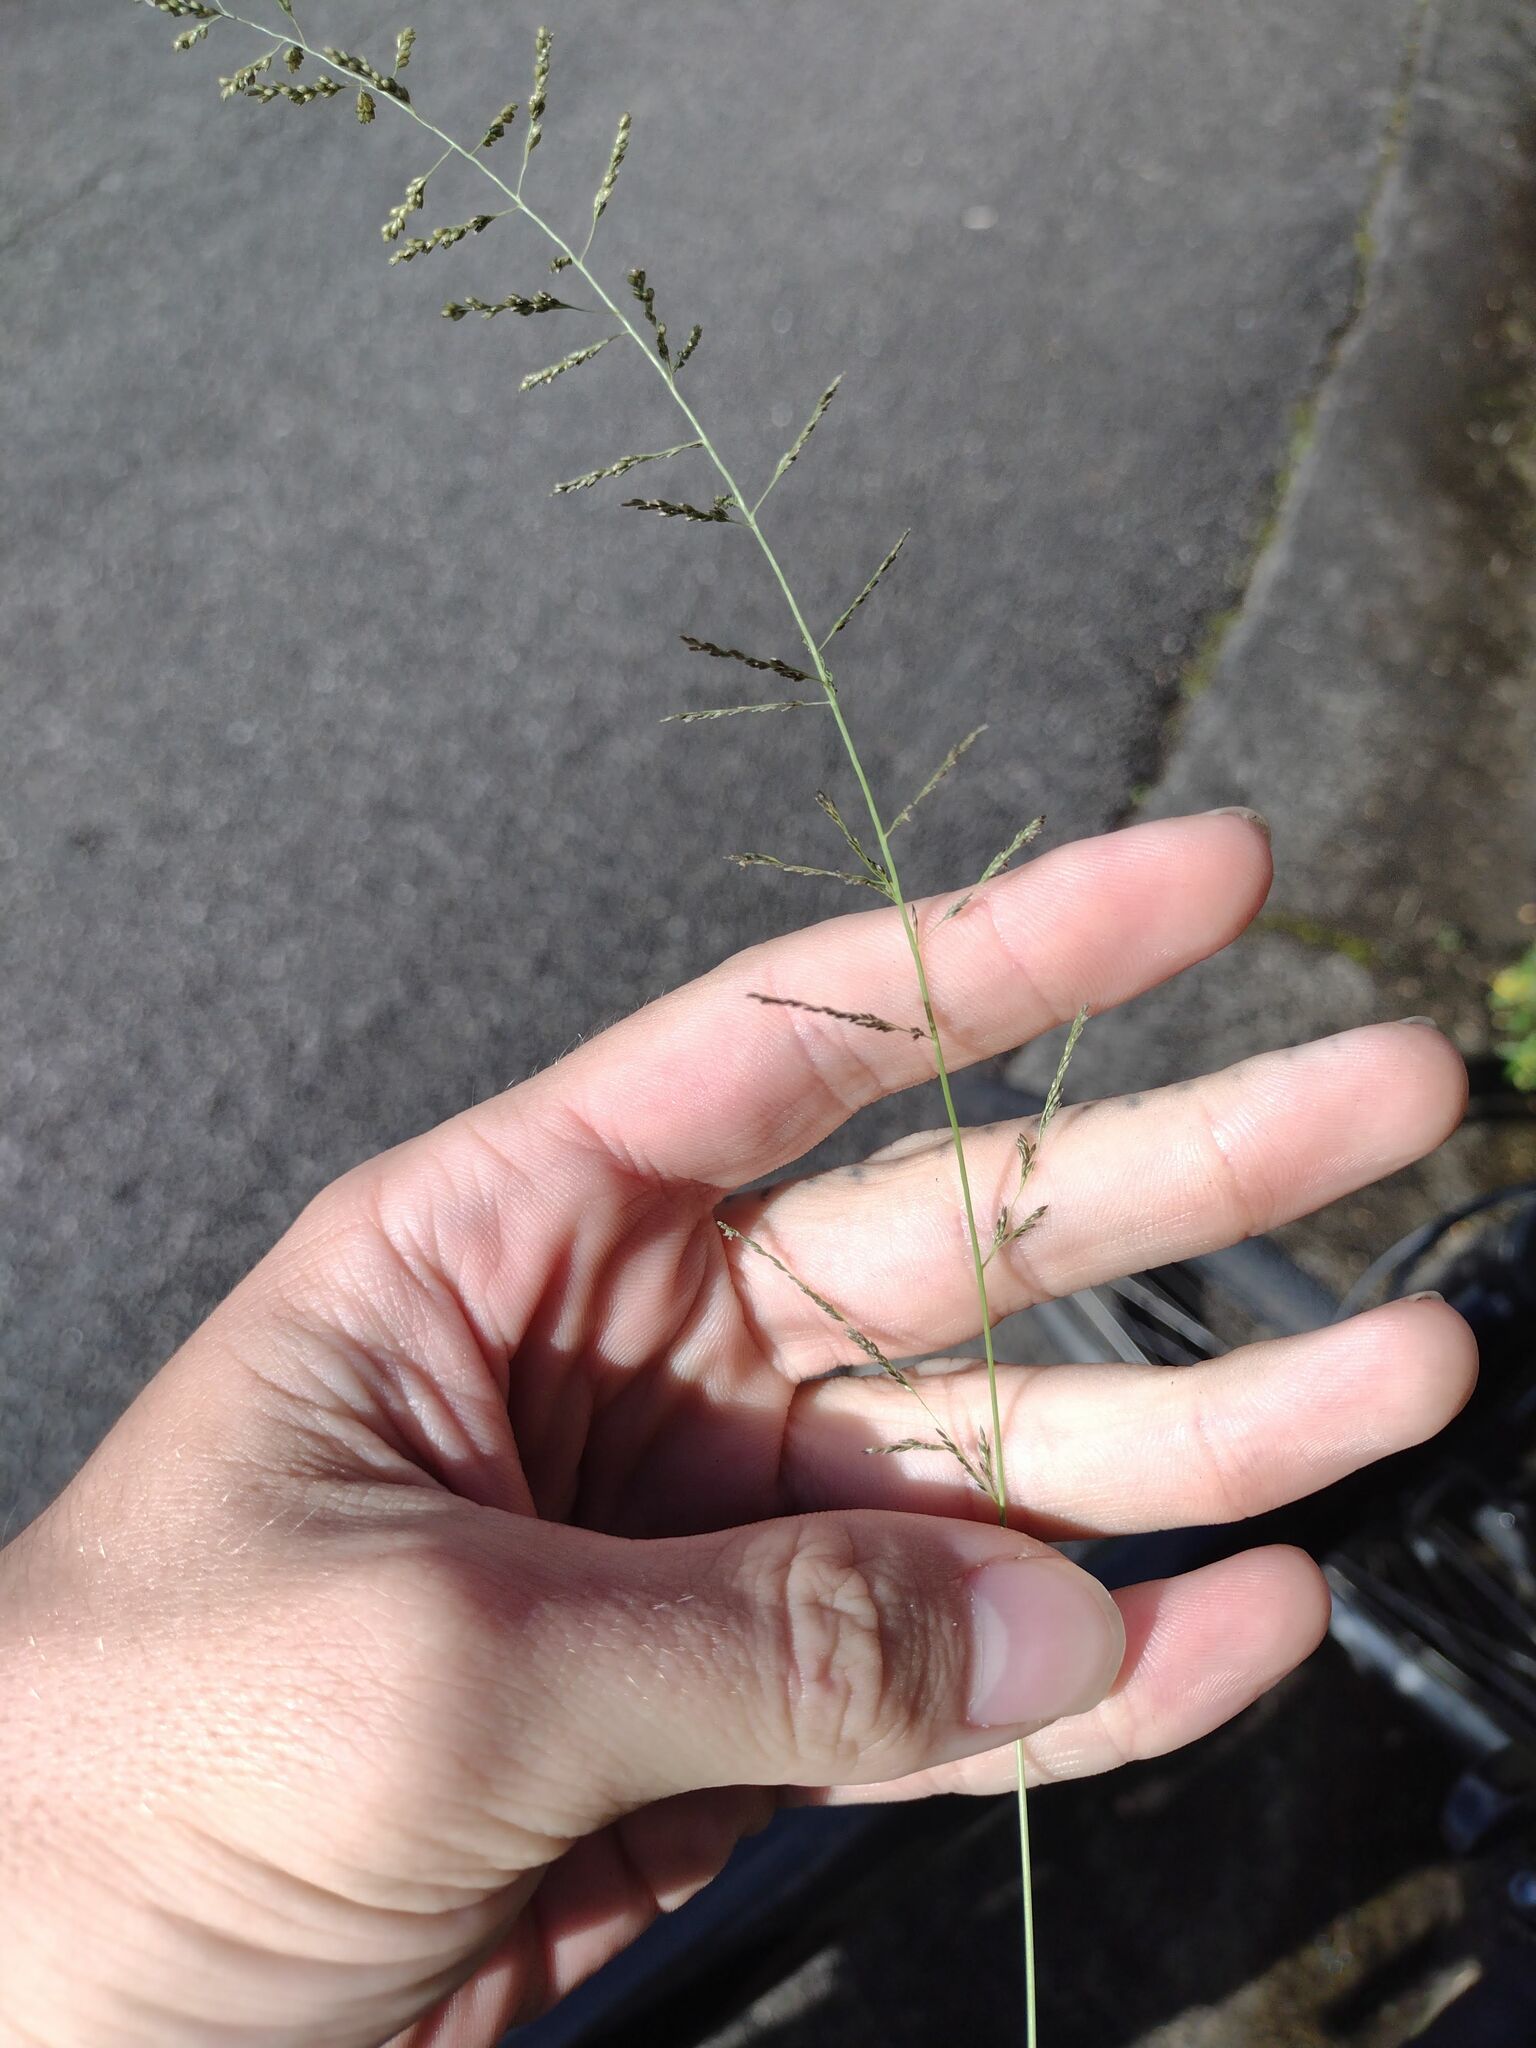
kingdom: Plantae
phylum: Tracheophyta
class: Liliopsida
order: Poales
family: Poaceae
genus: Sporobolus
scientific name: Sporobolus diandrus
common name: Tussock dropseed
